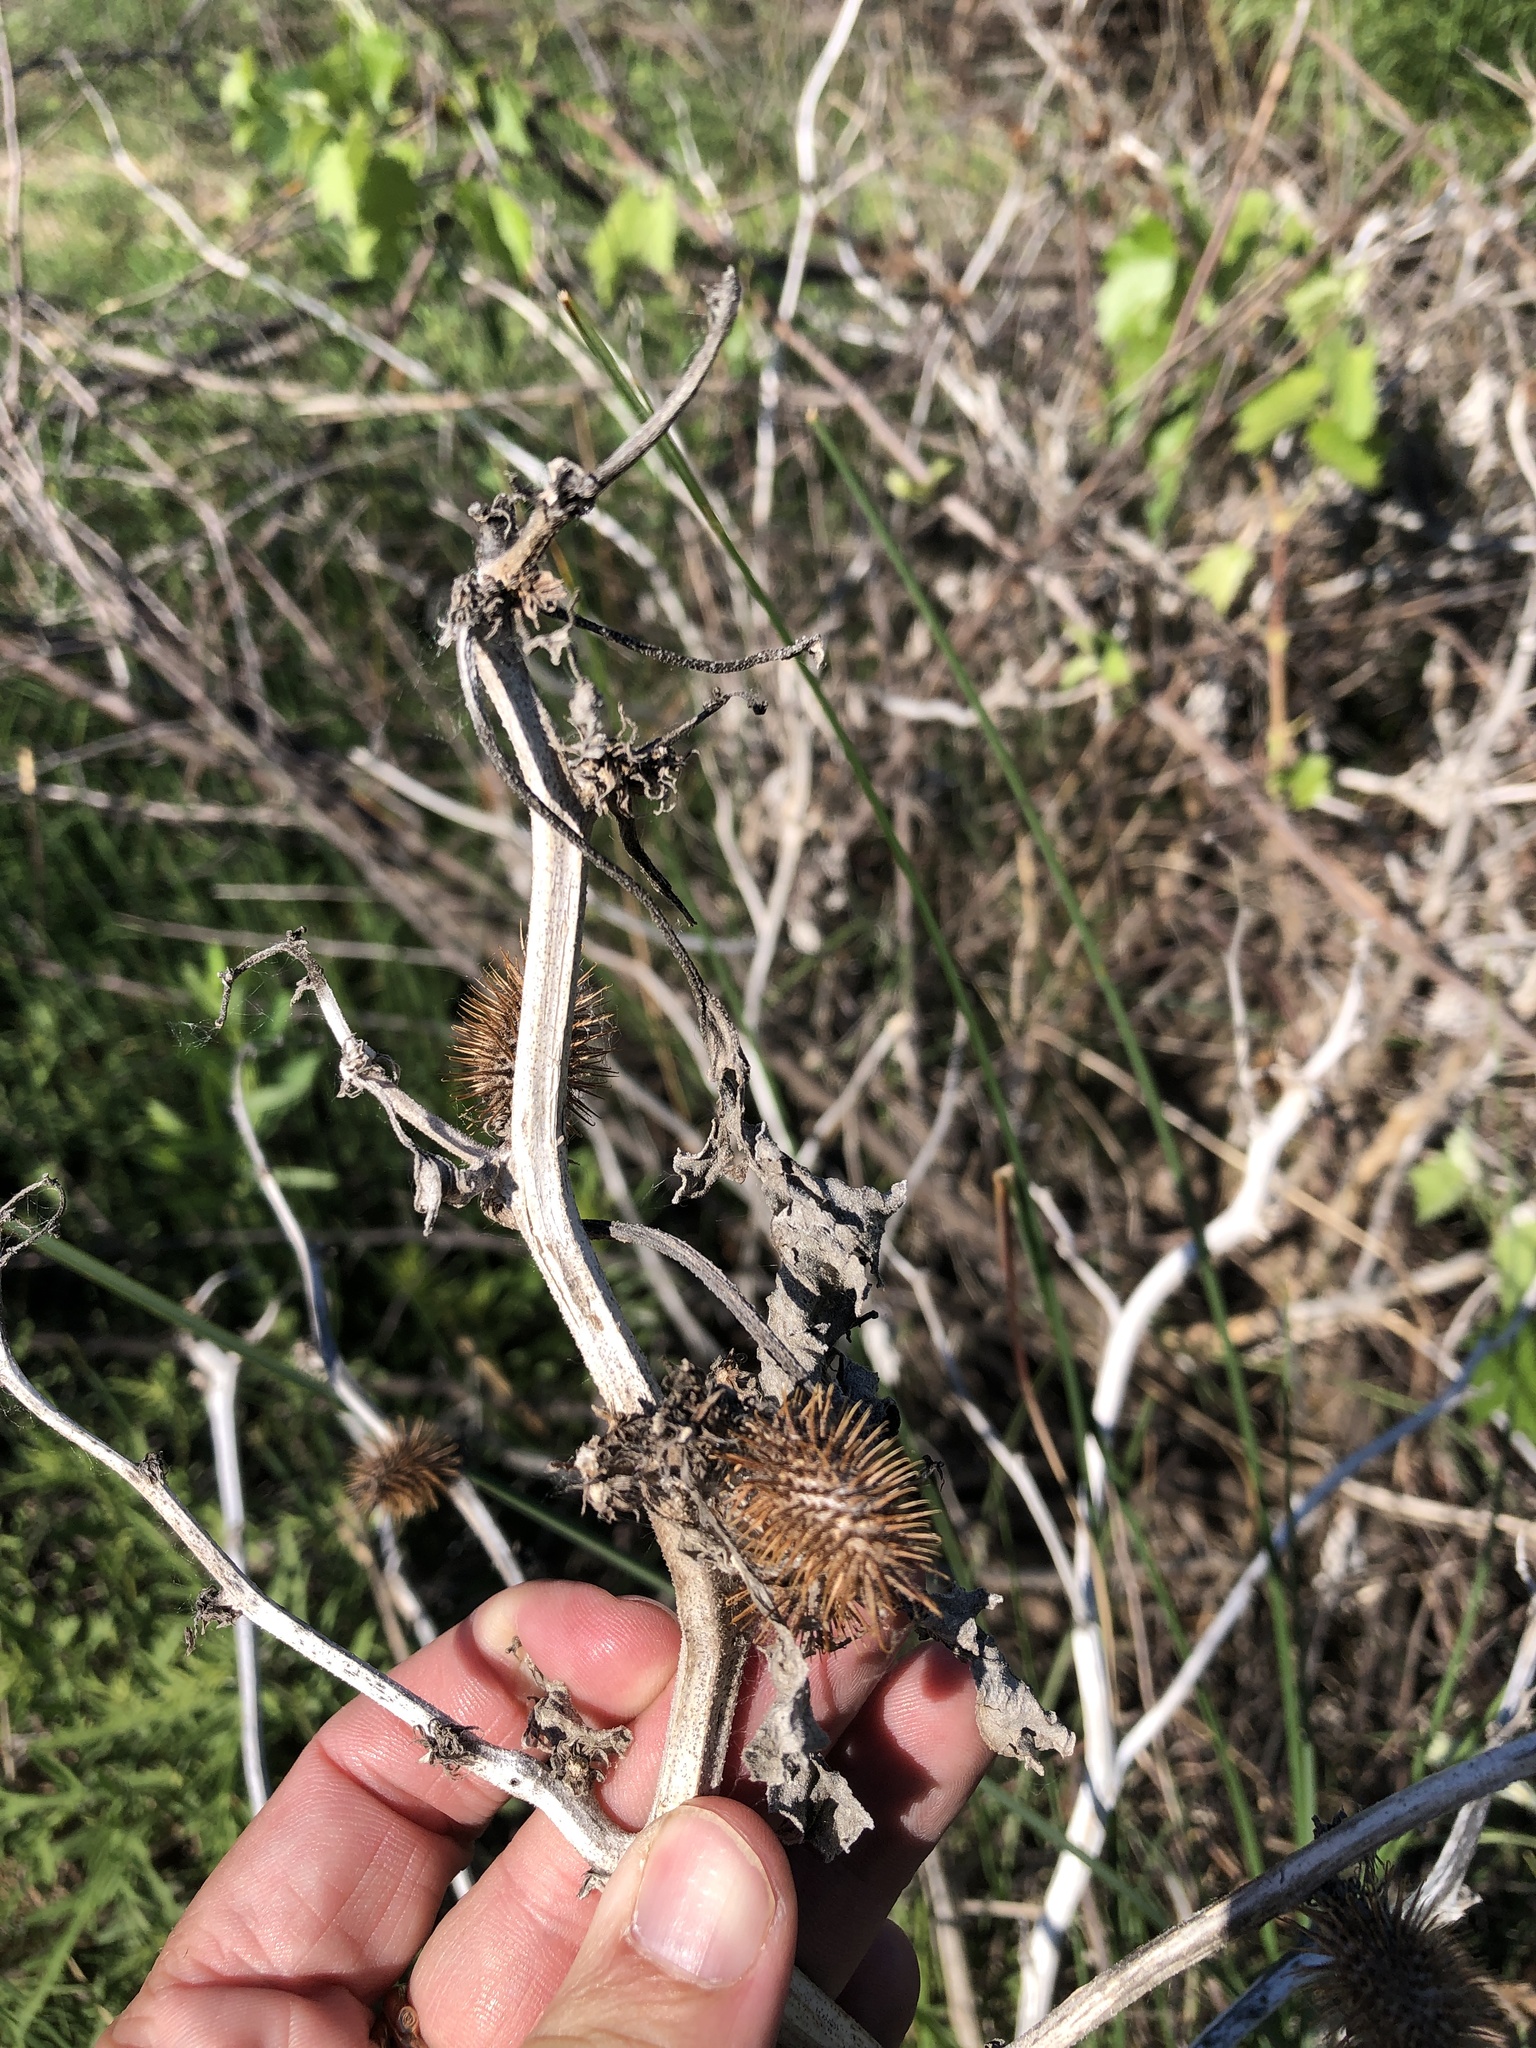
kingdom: Plantae
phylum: Tracheophyta
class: Magnoliopsida
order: Asterales
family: Asteraceae
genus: Xanthium
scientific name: Xanthium strumarium
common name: Rough cocklebur
